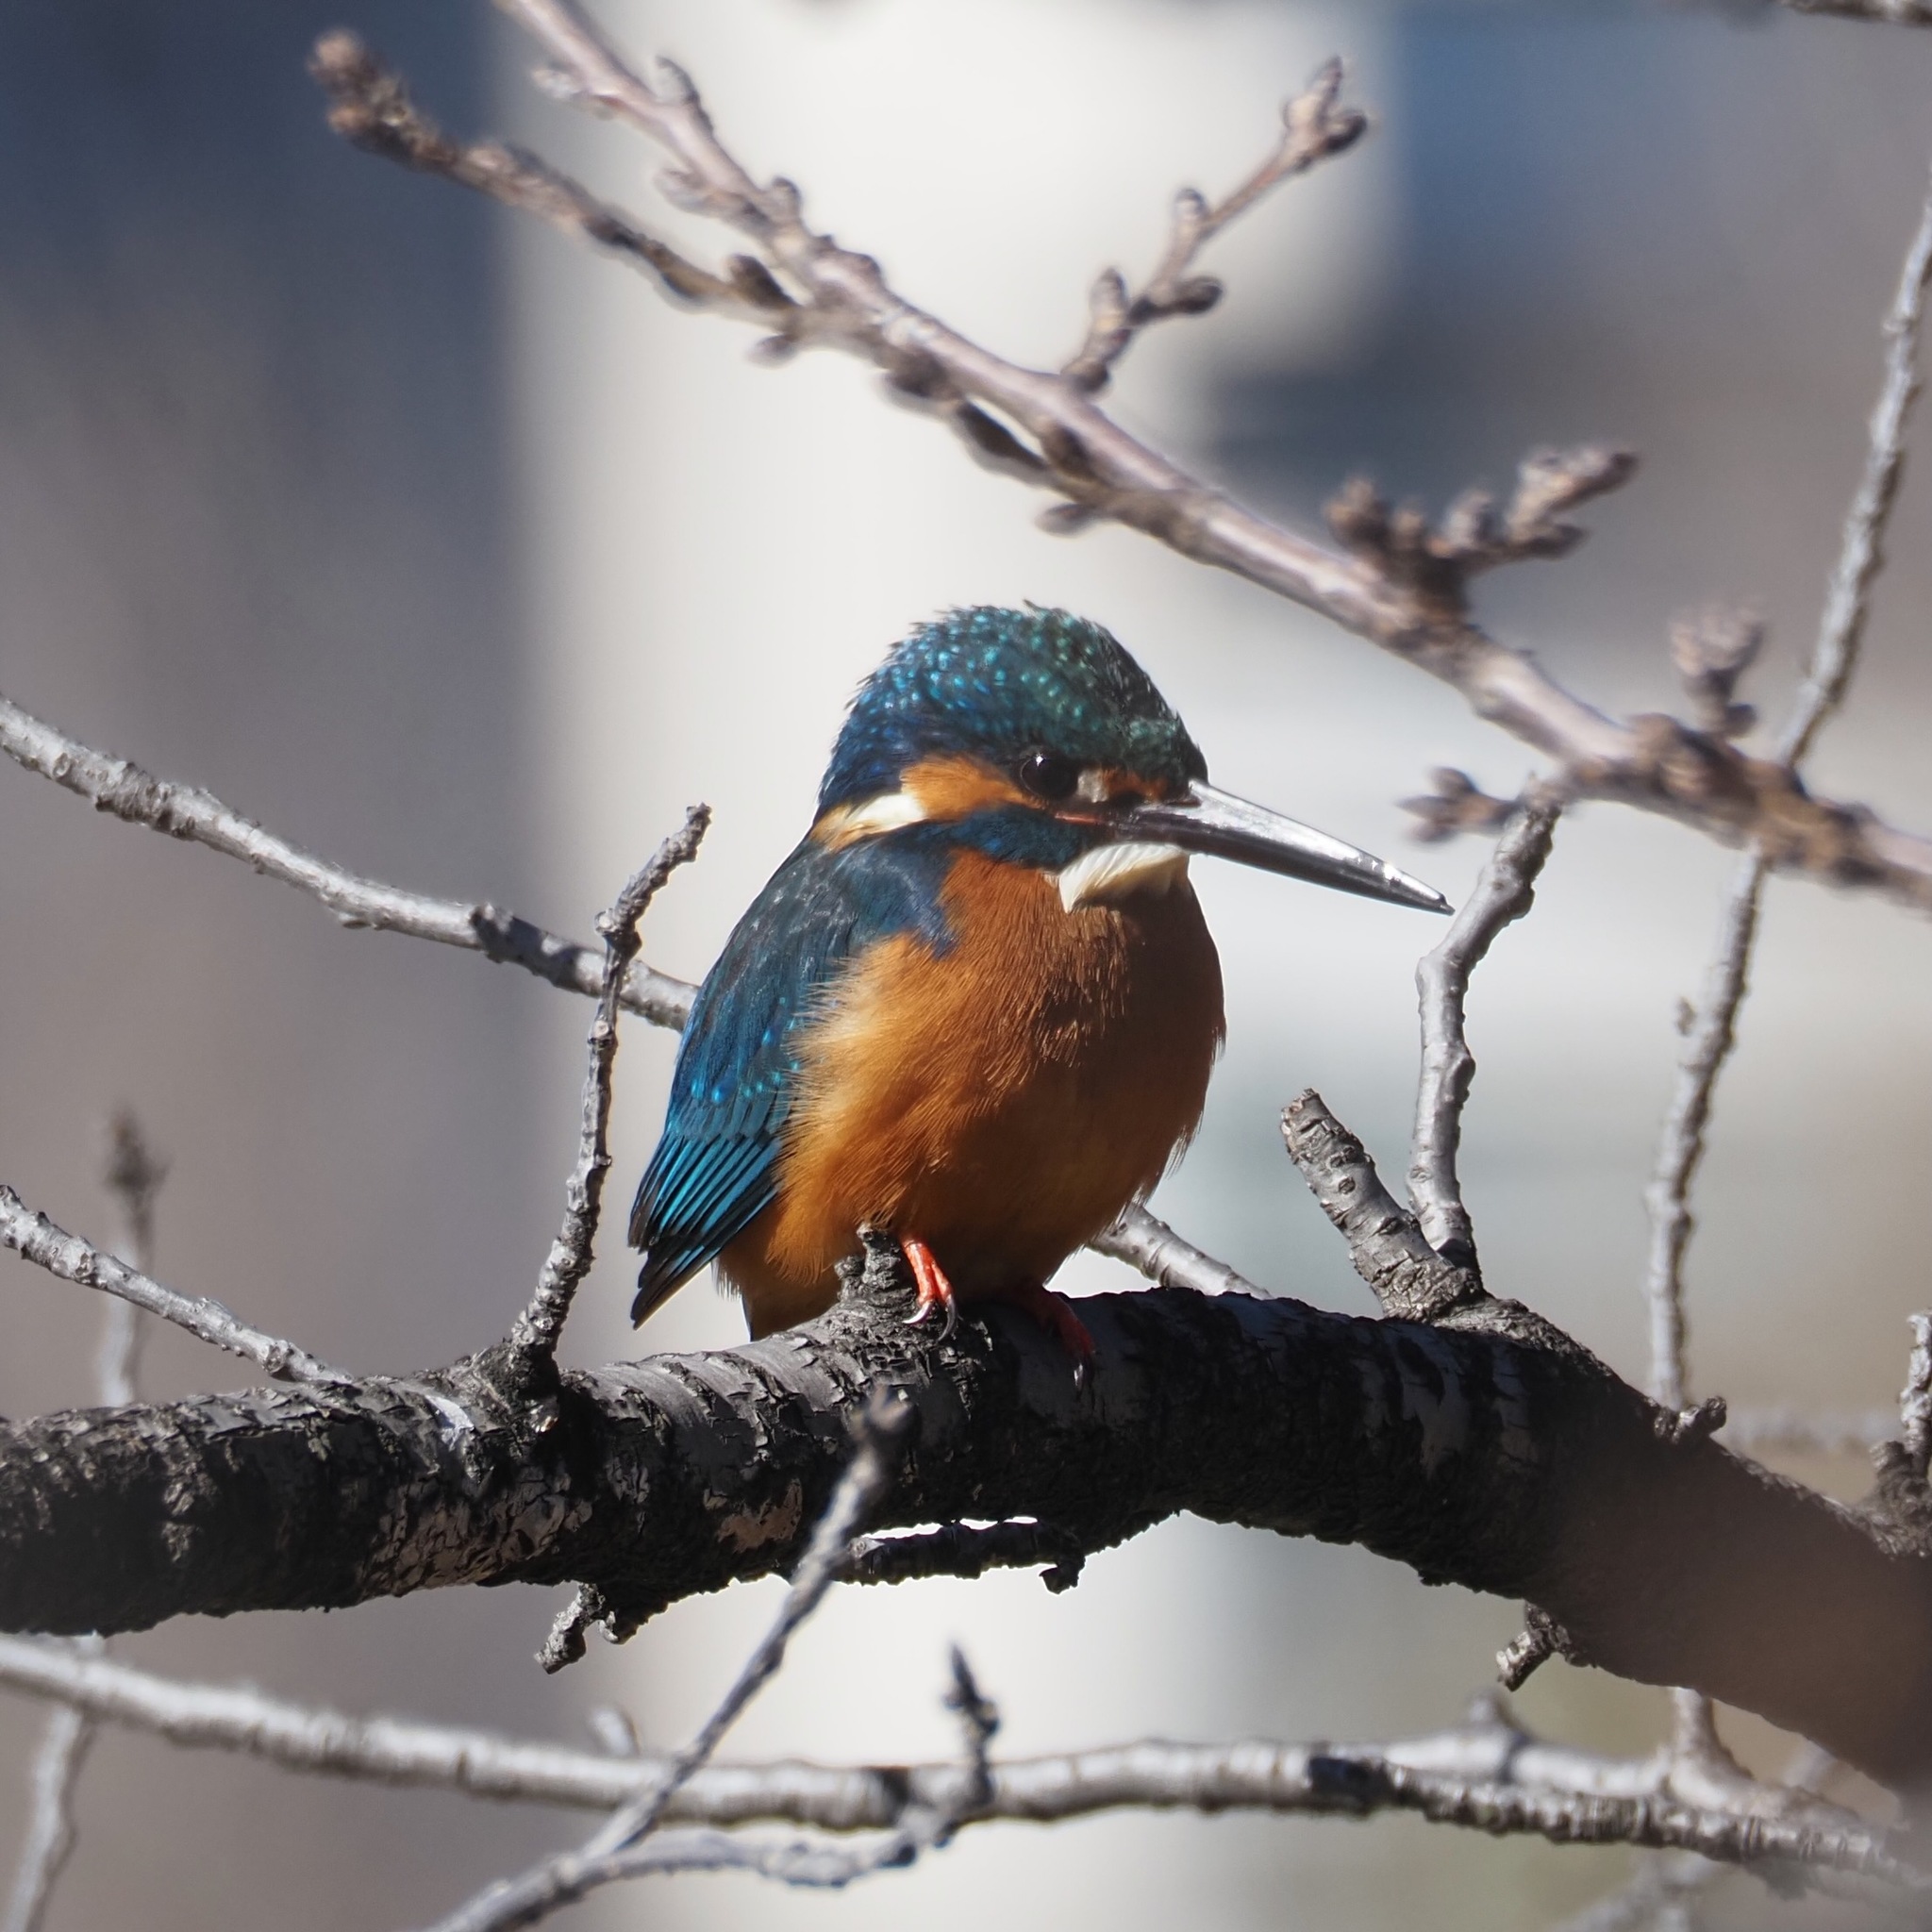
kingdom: Animalia
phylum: Chordata
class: Aves
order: Coraciiformes
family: Alcedinidae
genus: Alcedo
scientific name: Alcedo atthis
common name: Common kingfisher
